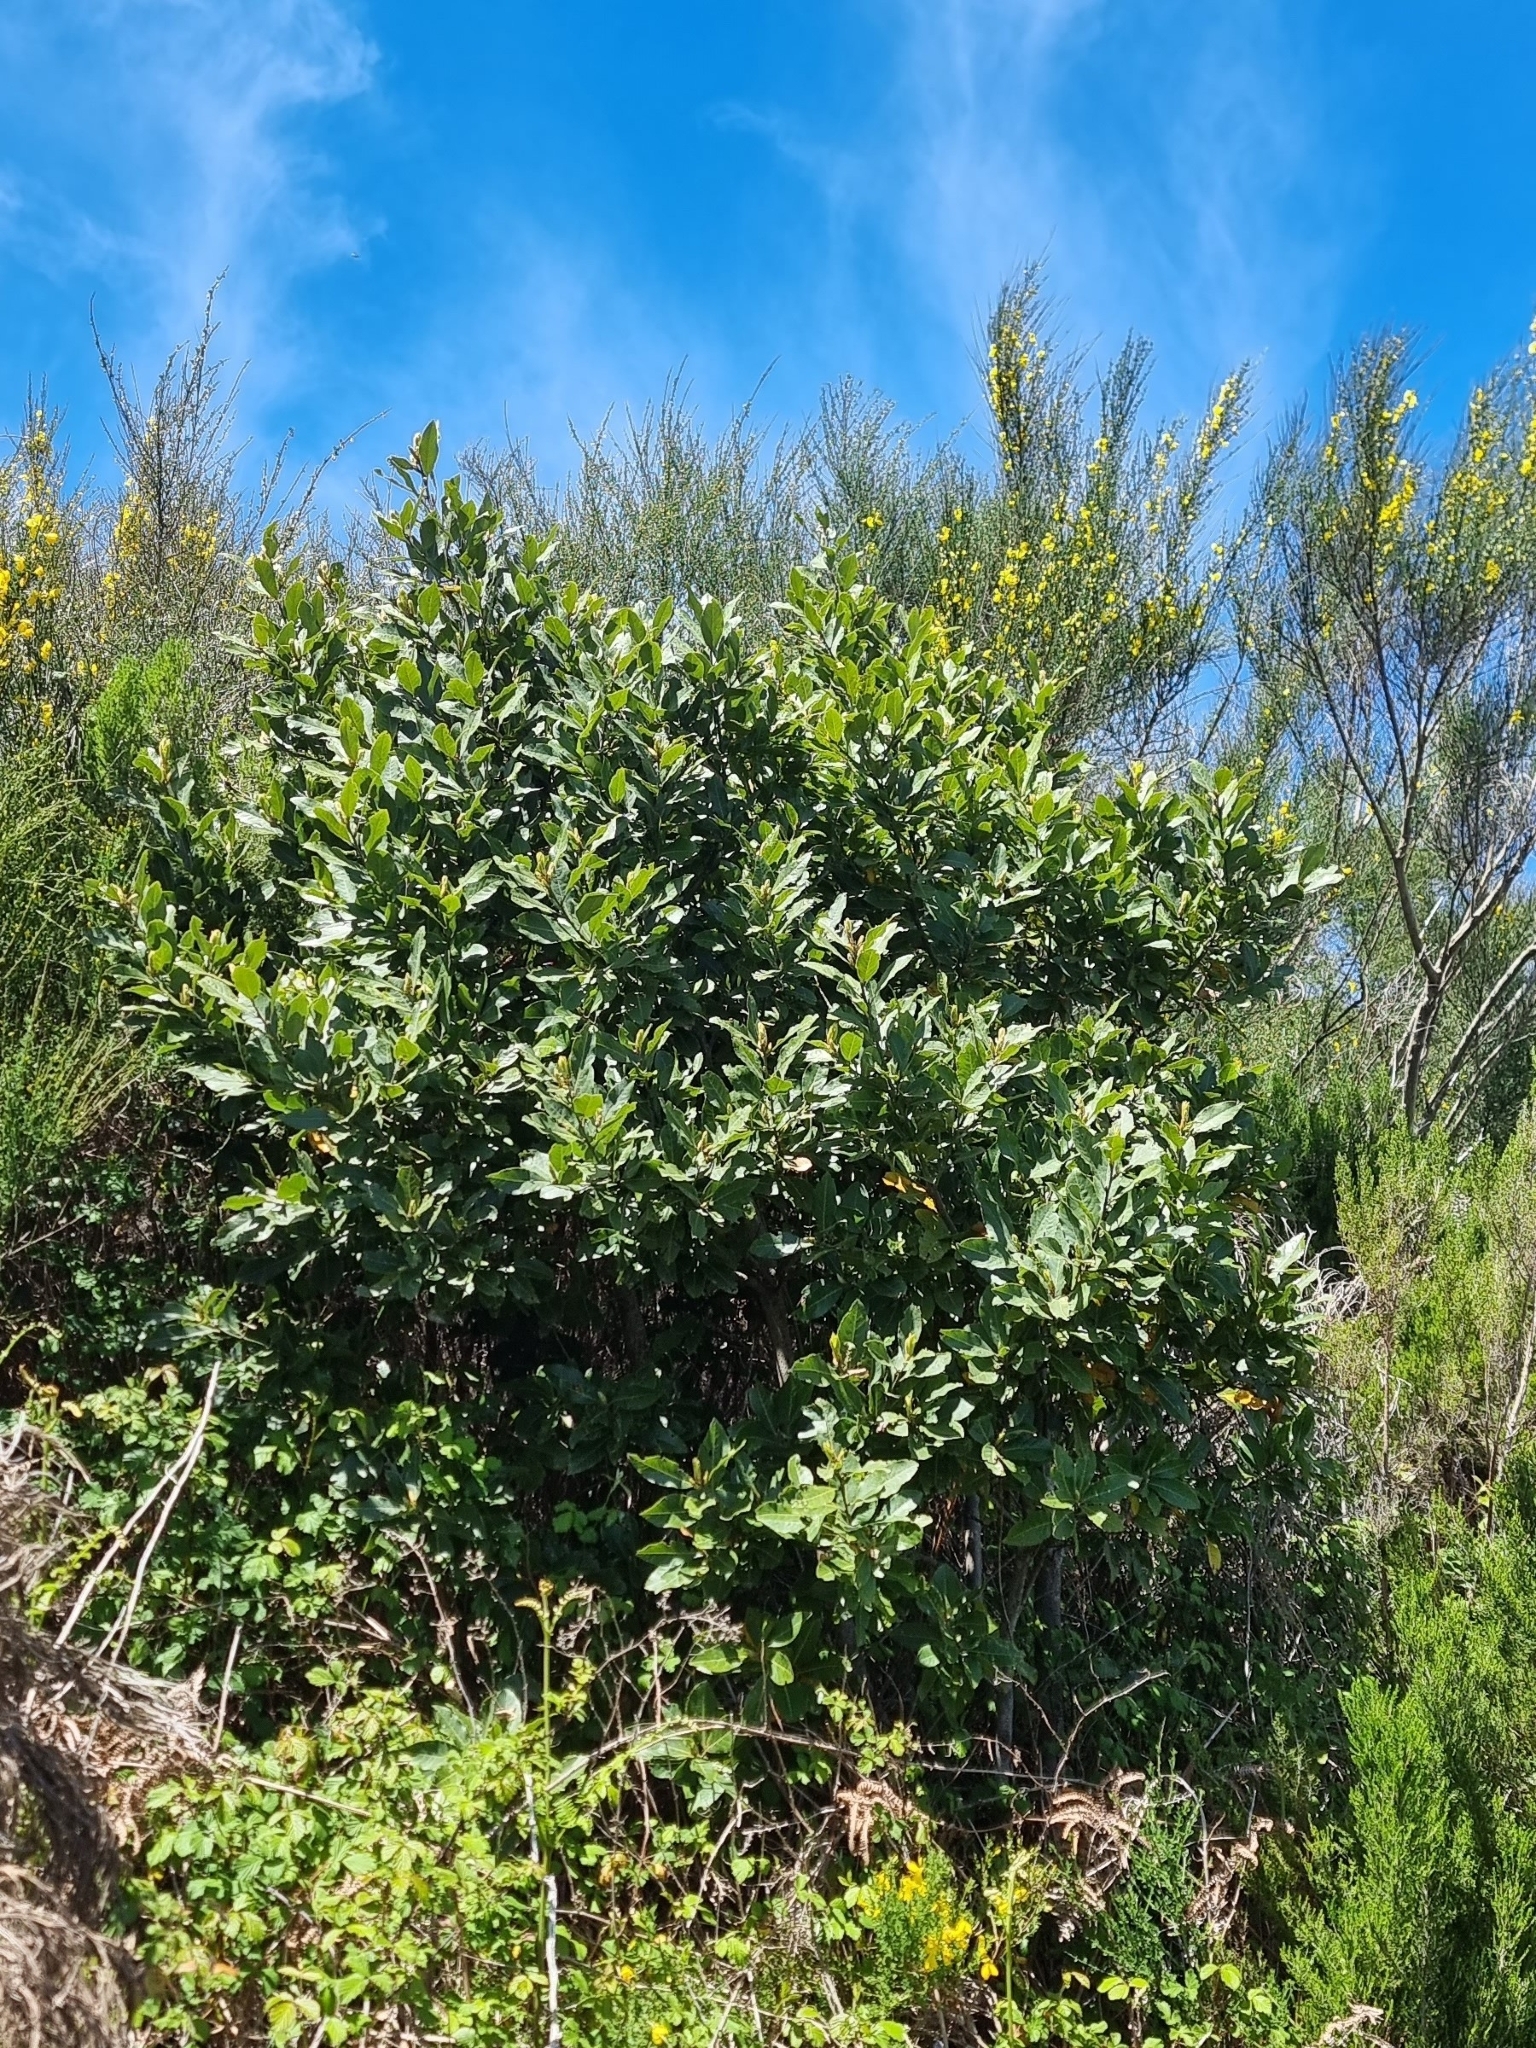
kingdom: Plantae
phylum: Tracheophyta
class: Magnoliopsida
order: Laurales
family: Lauraceae
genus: Laurus
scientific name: Laurus novocanariensis
